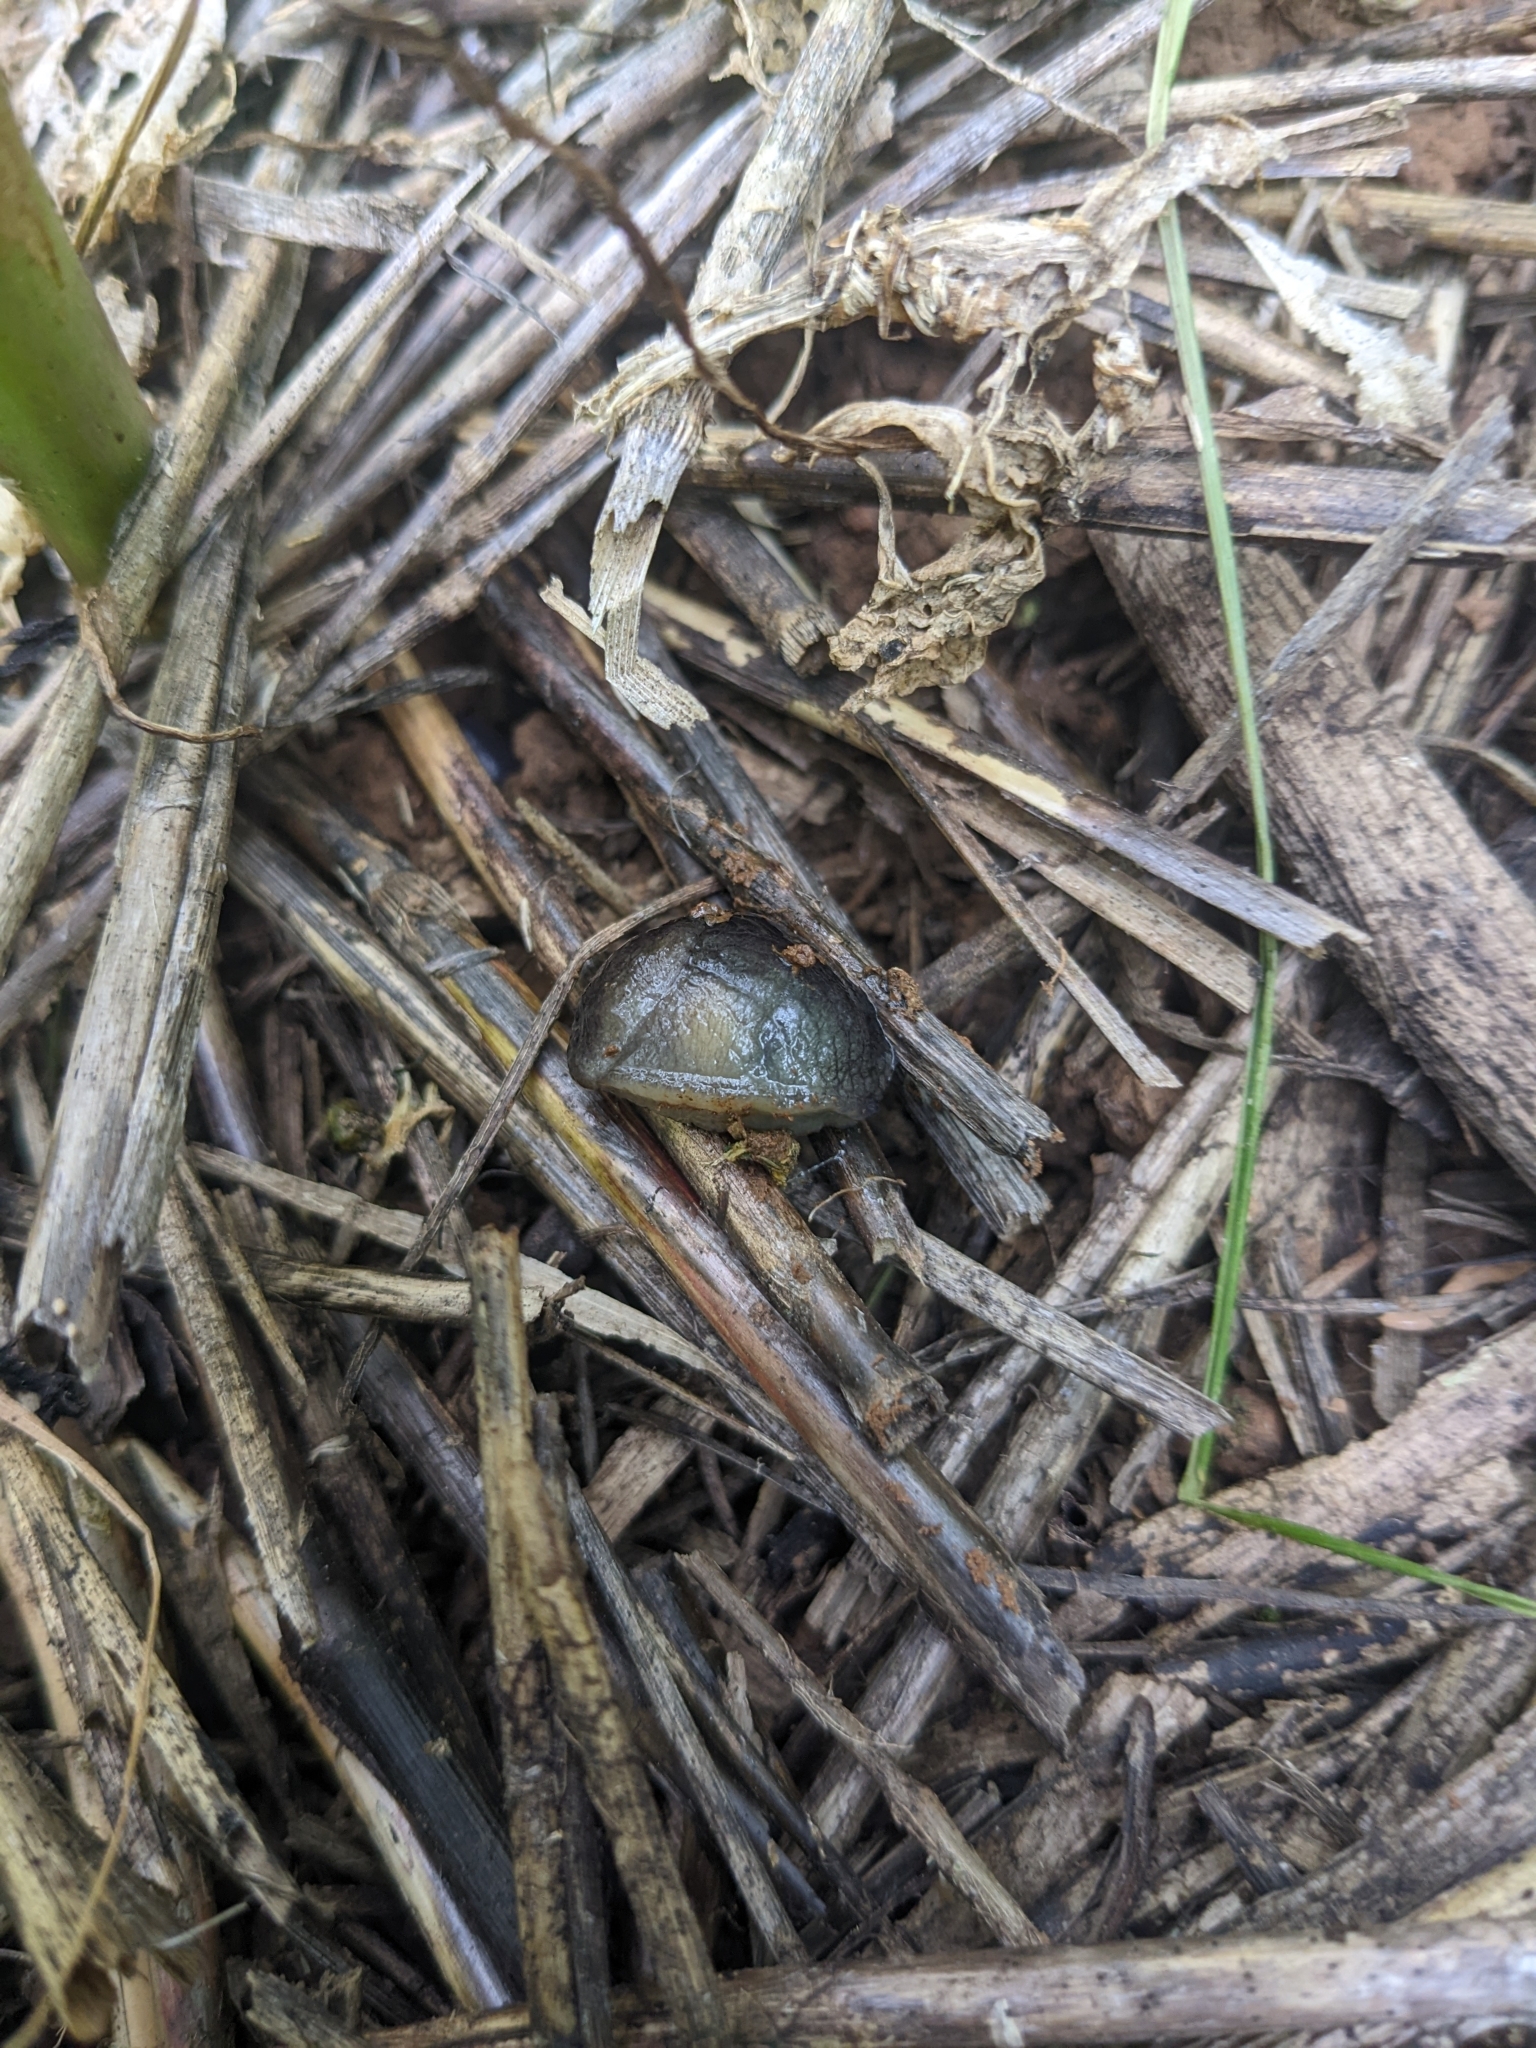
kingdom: Animalia
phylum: Mollusca
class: Gastropoda
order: Stylommatophora
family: Milacidae
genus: Milax
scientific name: Milax gagates
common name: Greenhouse slug
